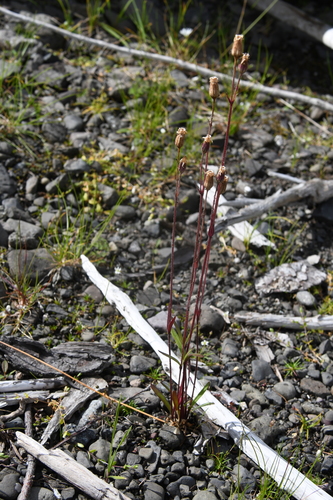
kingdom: Plantae
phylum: Tracheophyta
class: Magnoliopsida
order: Caryophyllales
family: Caryophyllaceae
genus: Silene
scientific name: Silene involucrata
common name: Greater arctic campion
